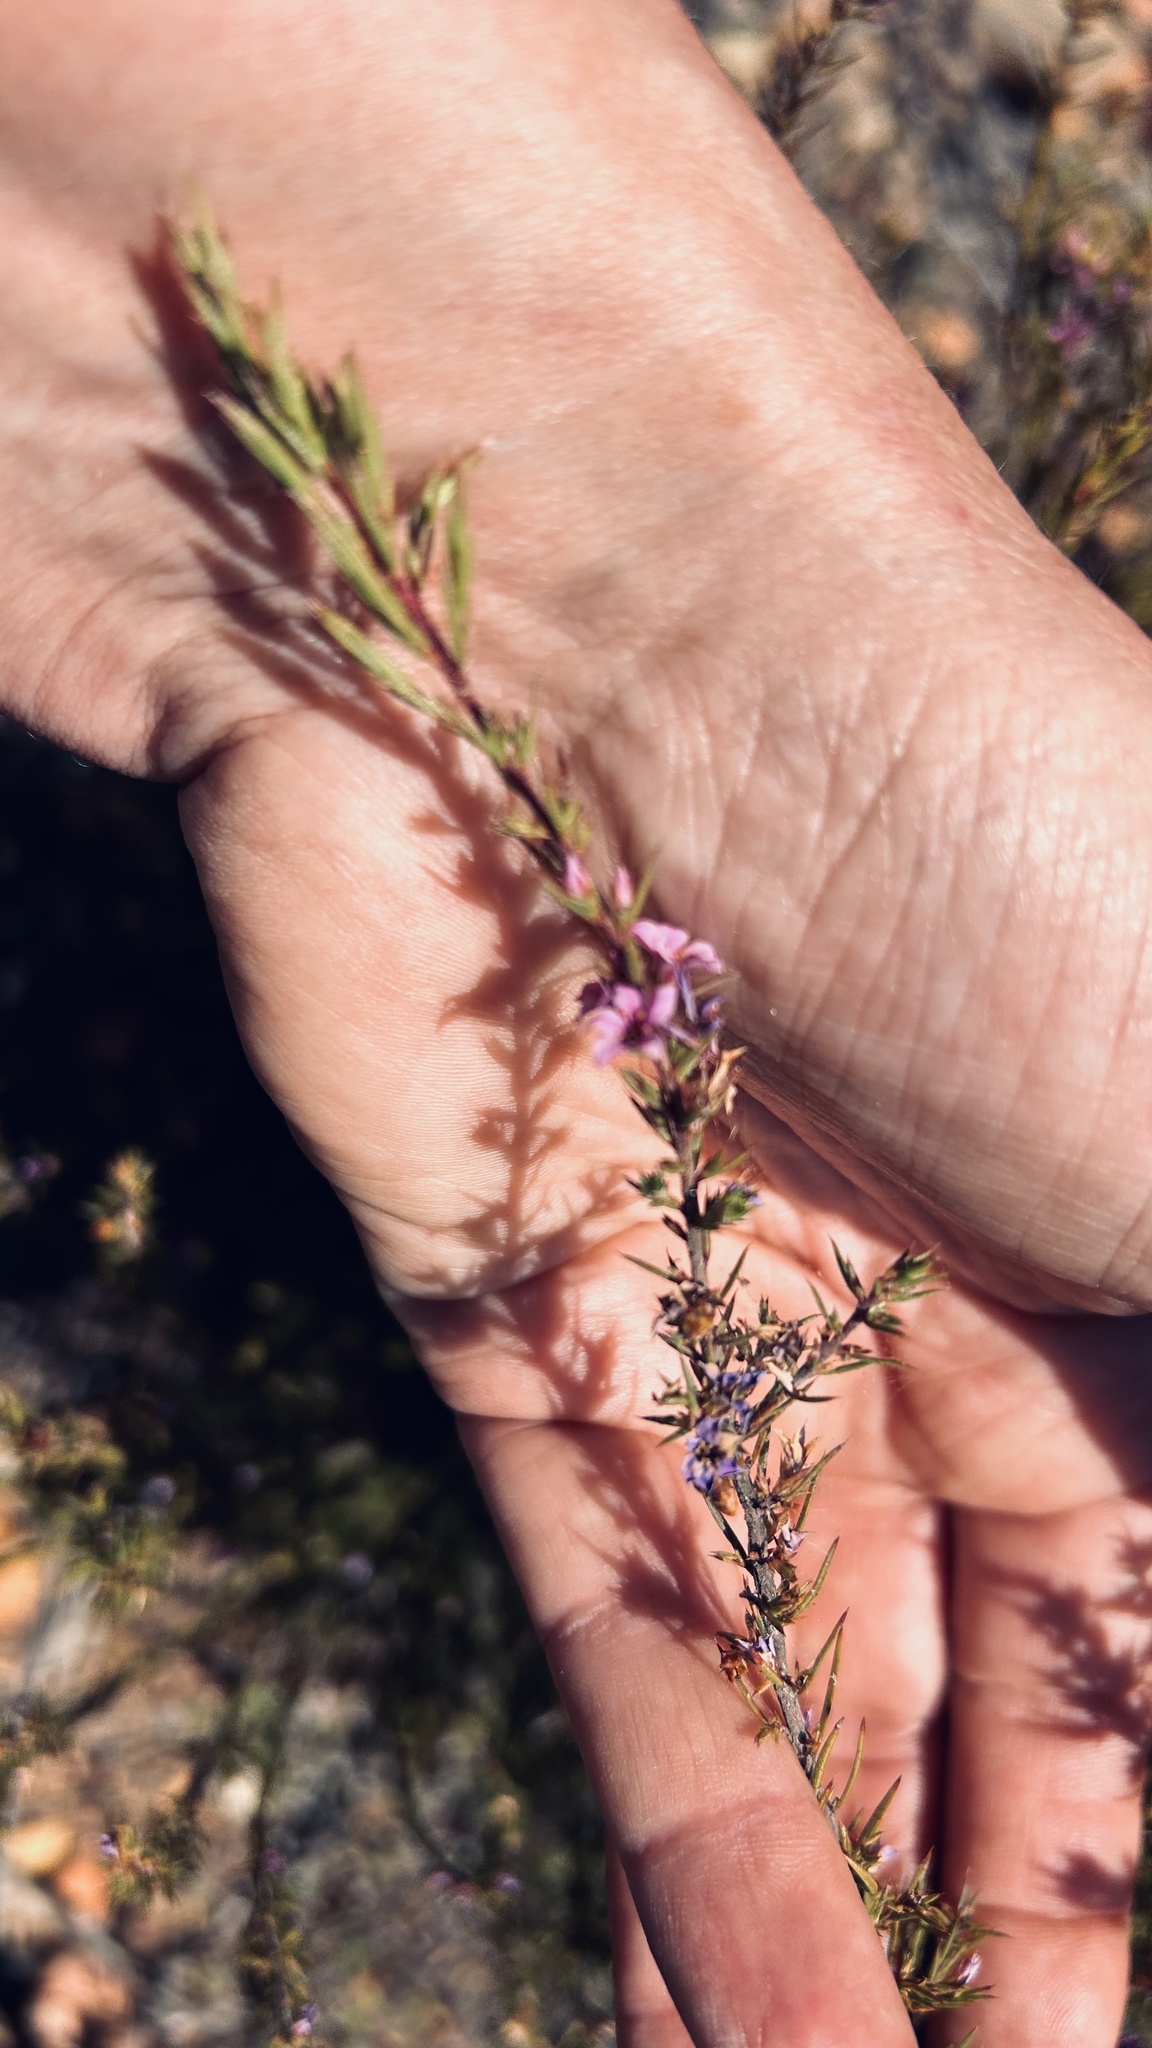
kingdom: Plantae
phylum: Tracheophyta
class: Magnoliopsida
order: Sapindales
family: Rutaceae
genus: Coleonema
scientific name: Coleonema aspalathoides
